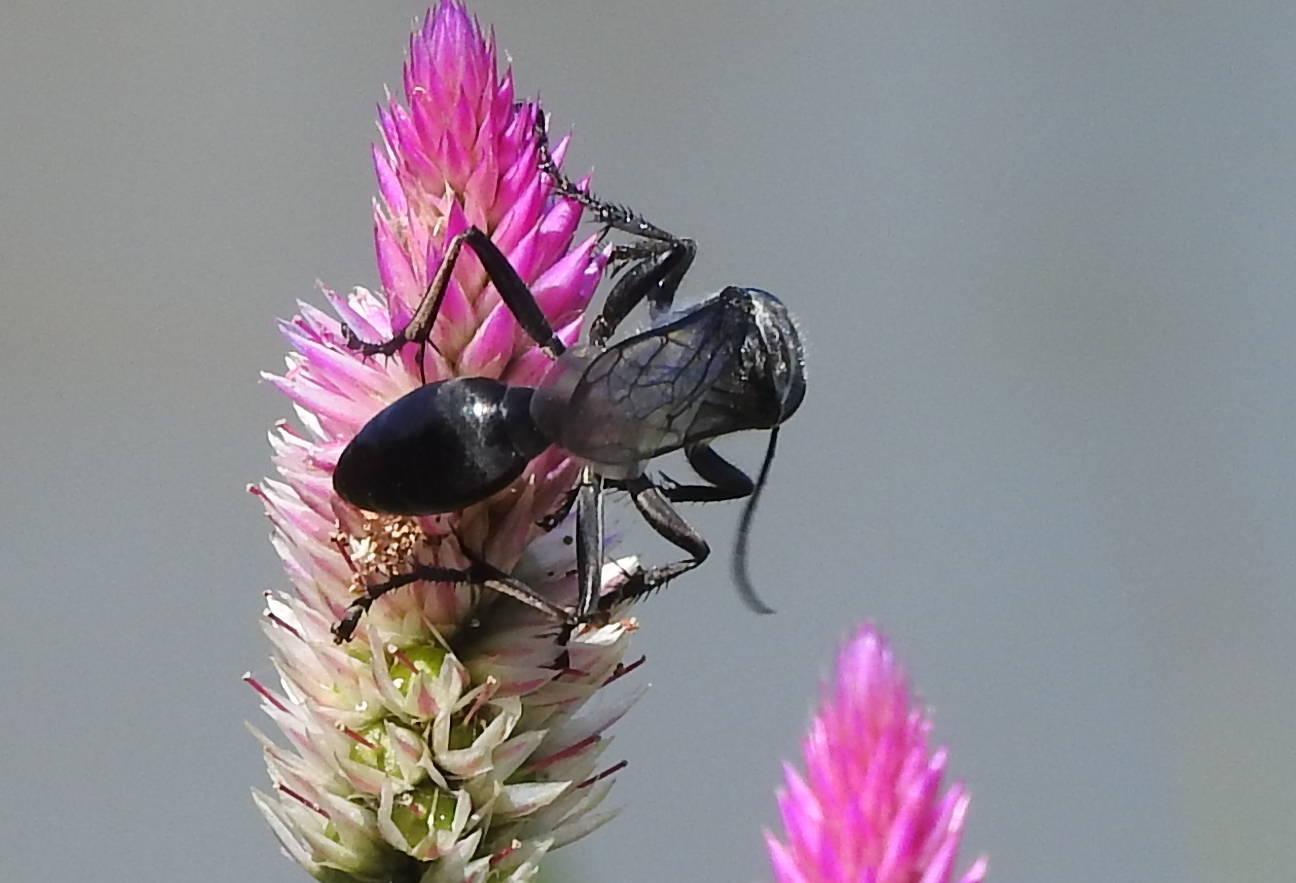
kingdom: Animalia
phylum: Arthropoda
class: Insecta
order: Hymenoptera
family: Sphecidae
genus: Sphex
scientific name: Sphex argentatus
